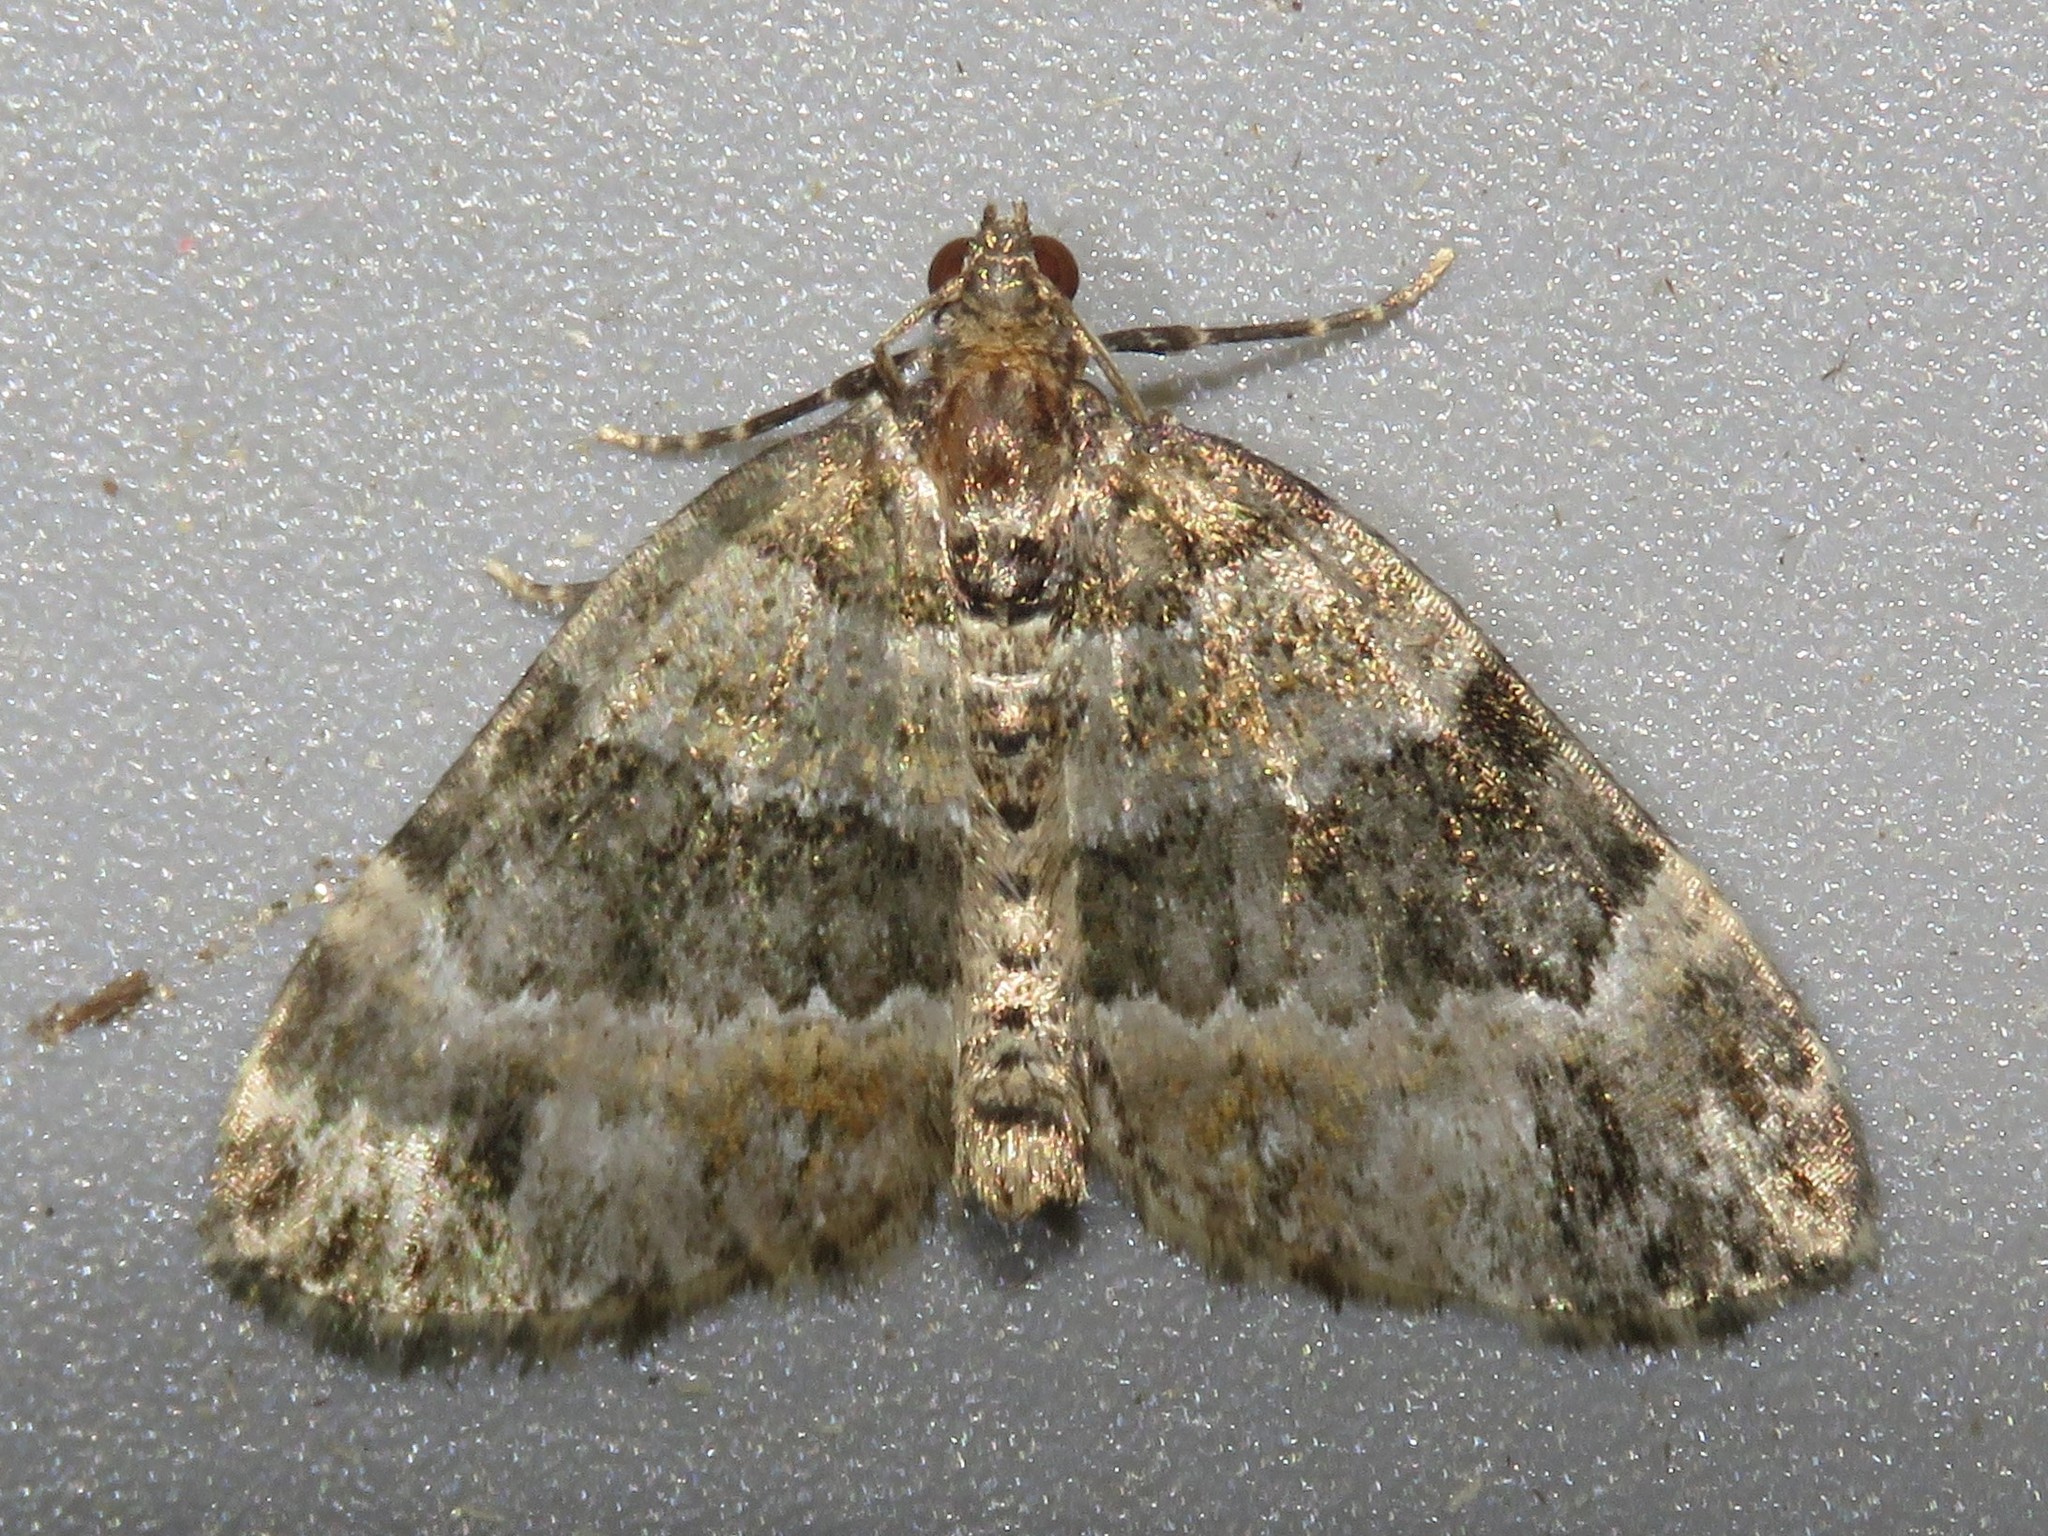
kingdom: Animalia
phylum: Arthropoda
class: Insecta
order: Lepidoptera
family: Geometridae
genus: Xanthorhoe
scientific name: Xanthorhoe ferrugata
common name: Dark-barred twin-spot carpet
